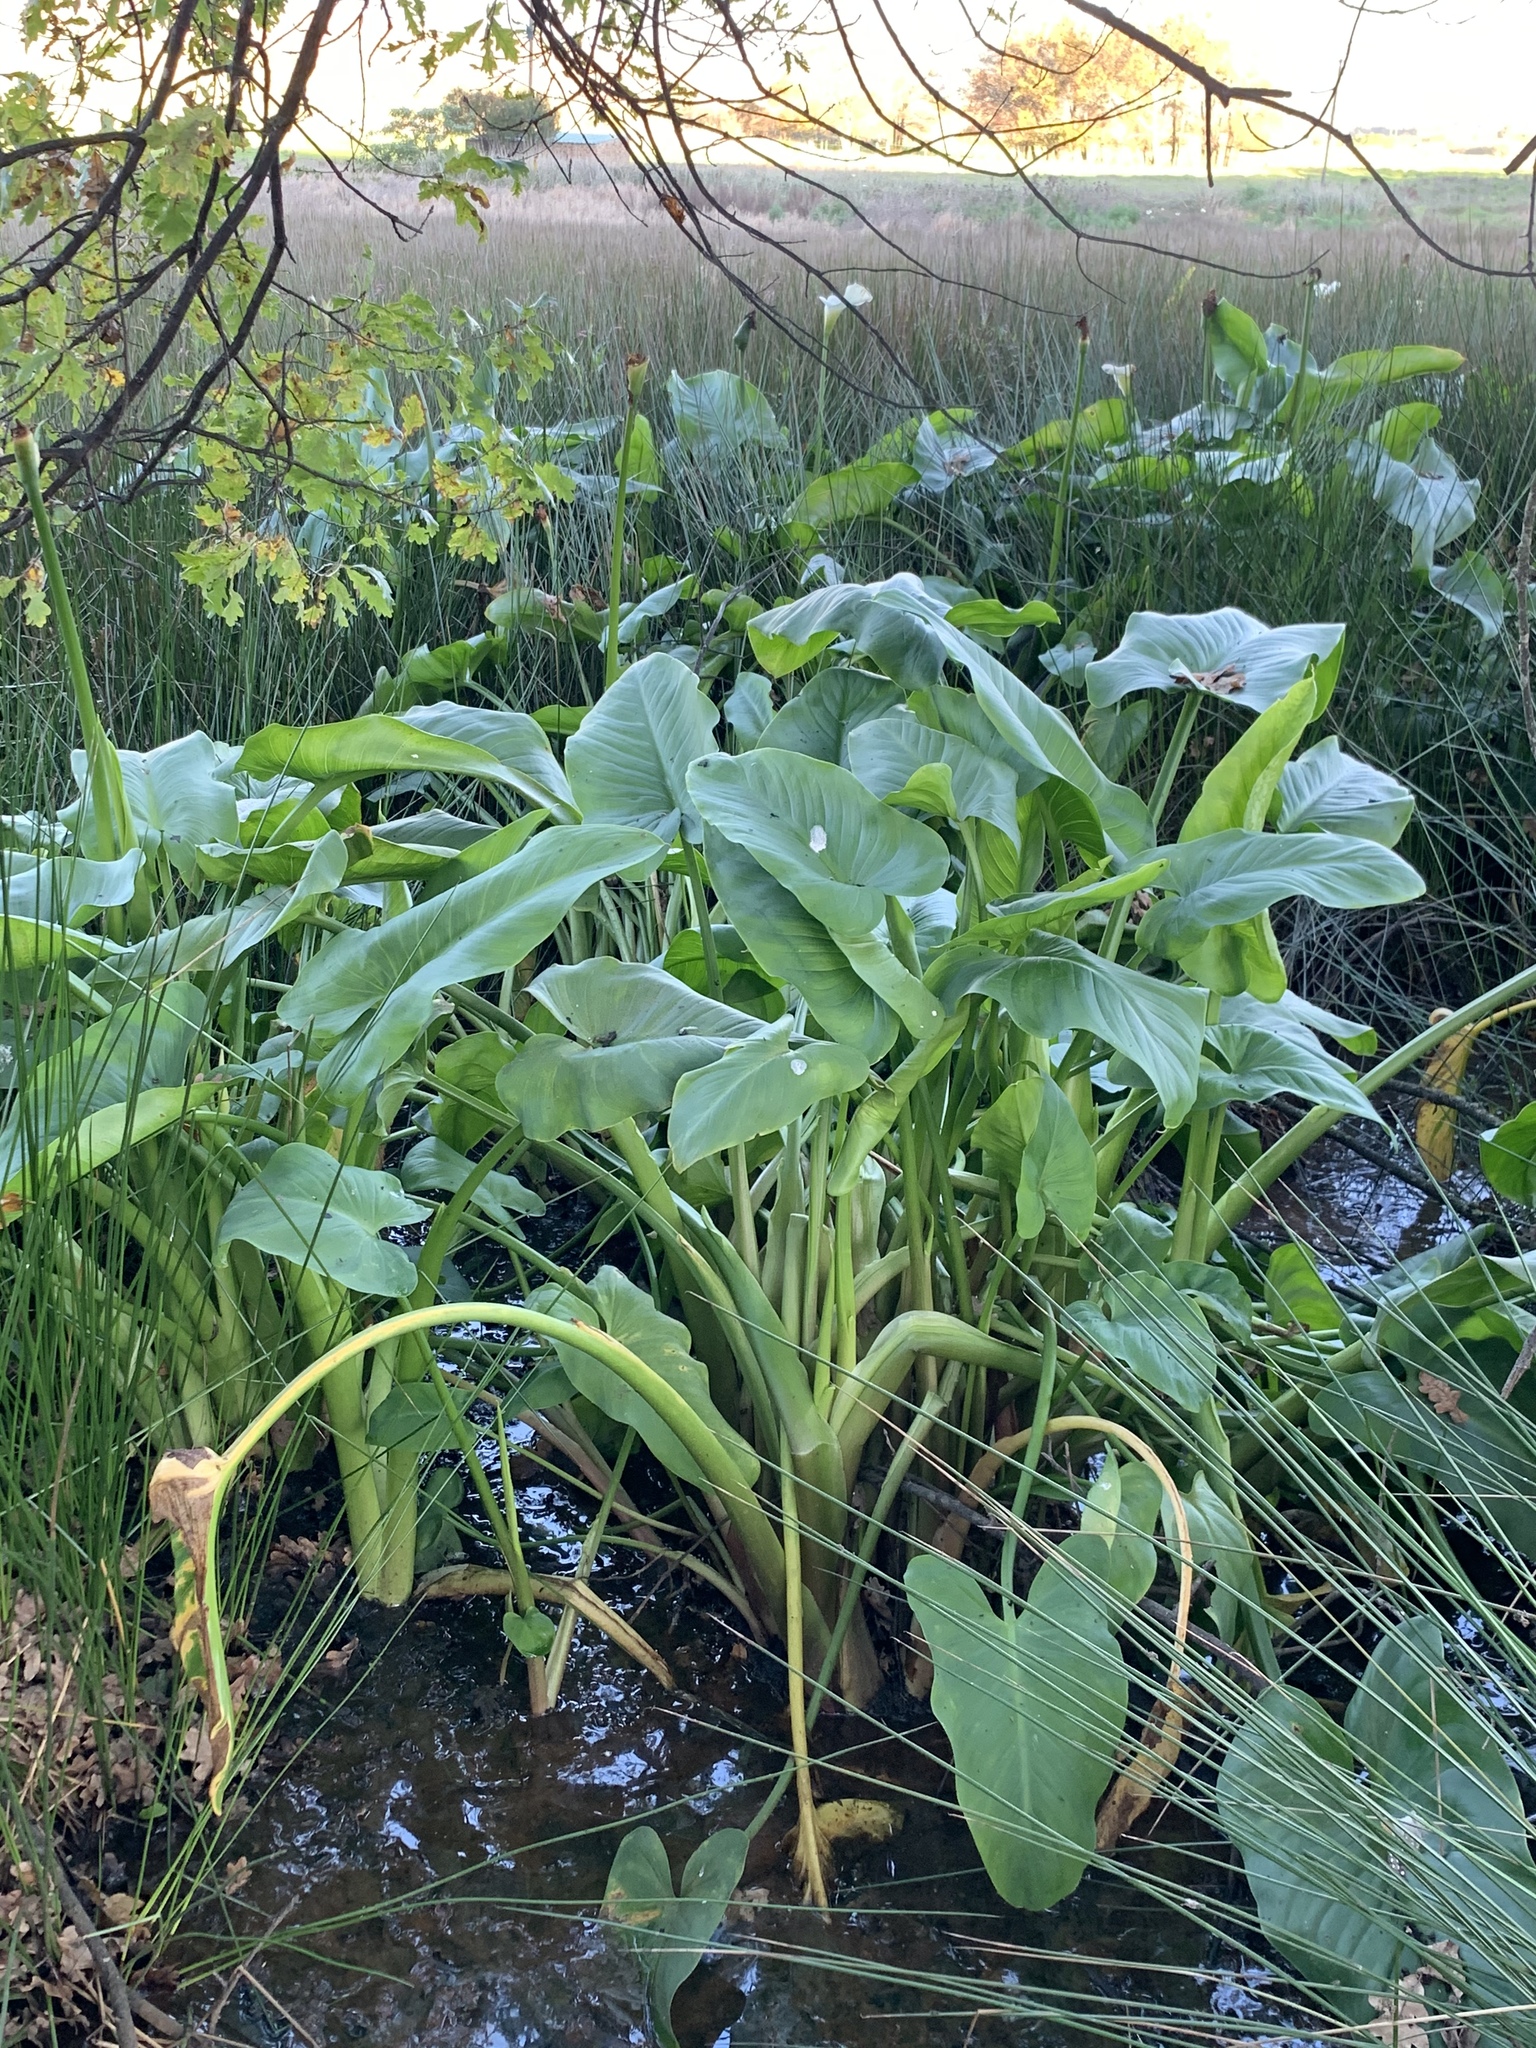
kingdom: Plantae
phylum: Tracheophyta
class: Liliopsida
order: Alismatales
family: Araceae
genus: Zantedeschia
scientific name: Zantedeschia aethiopica
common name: Altar-lily
